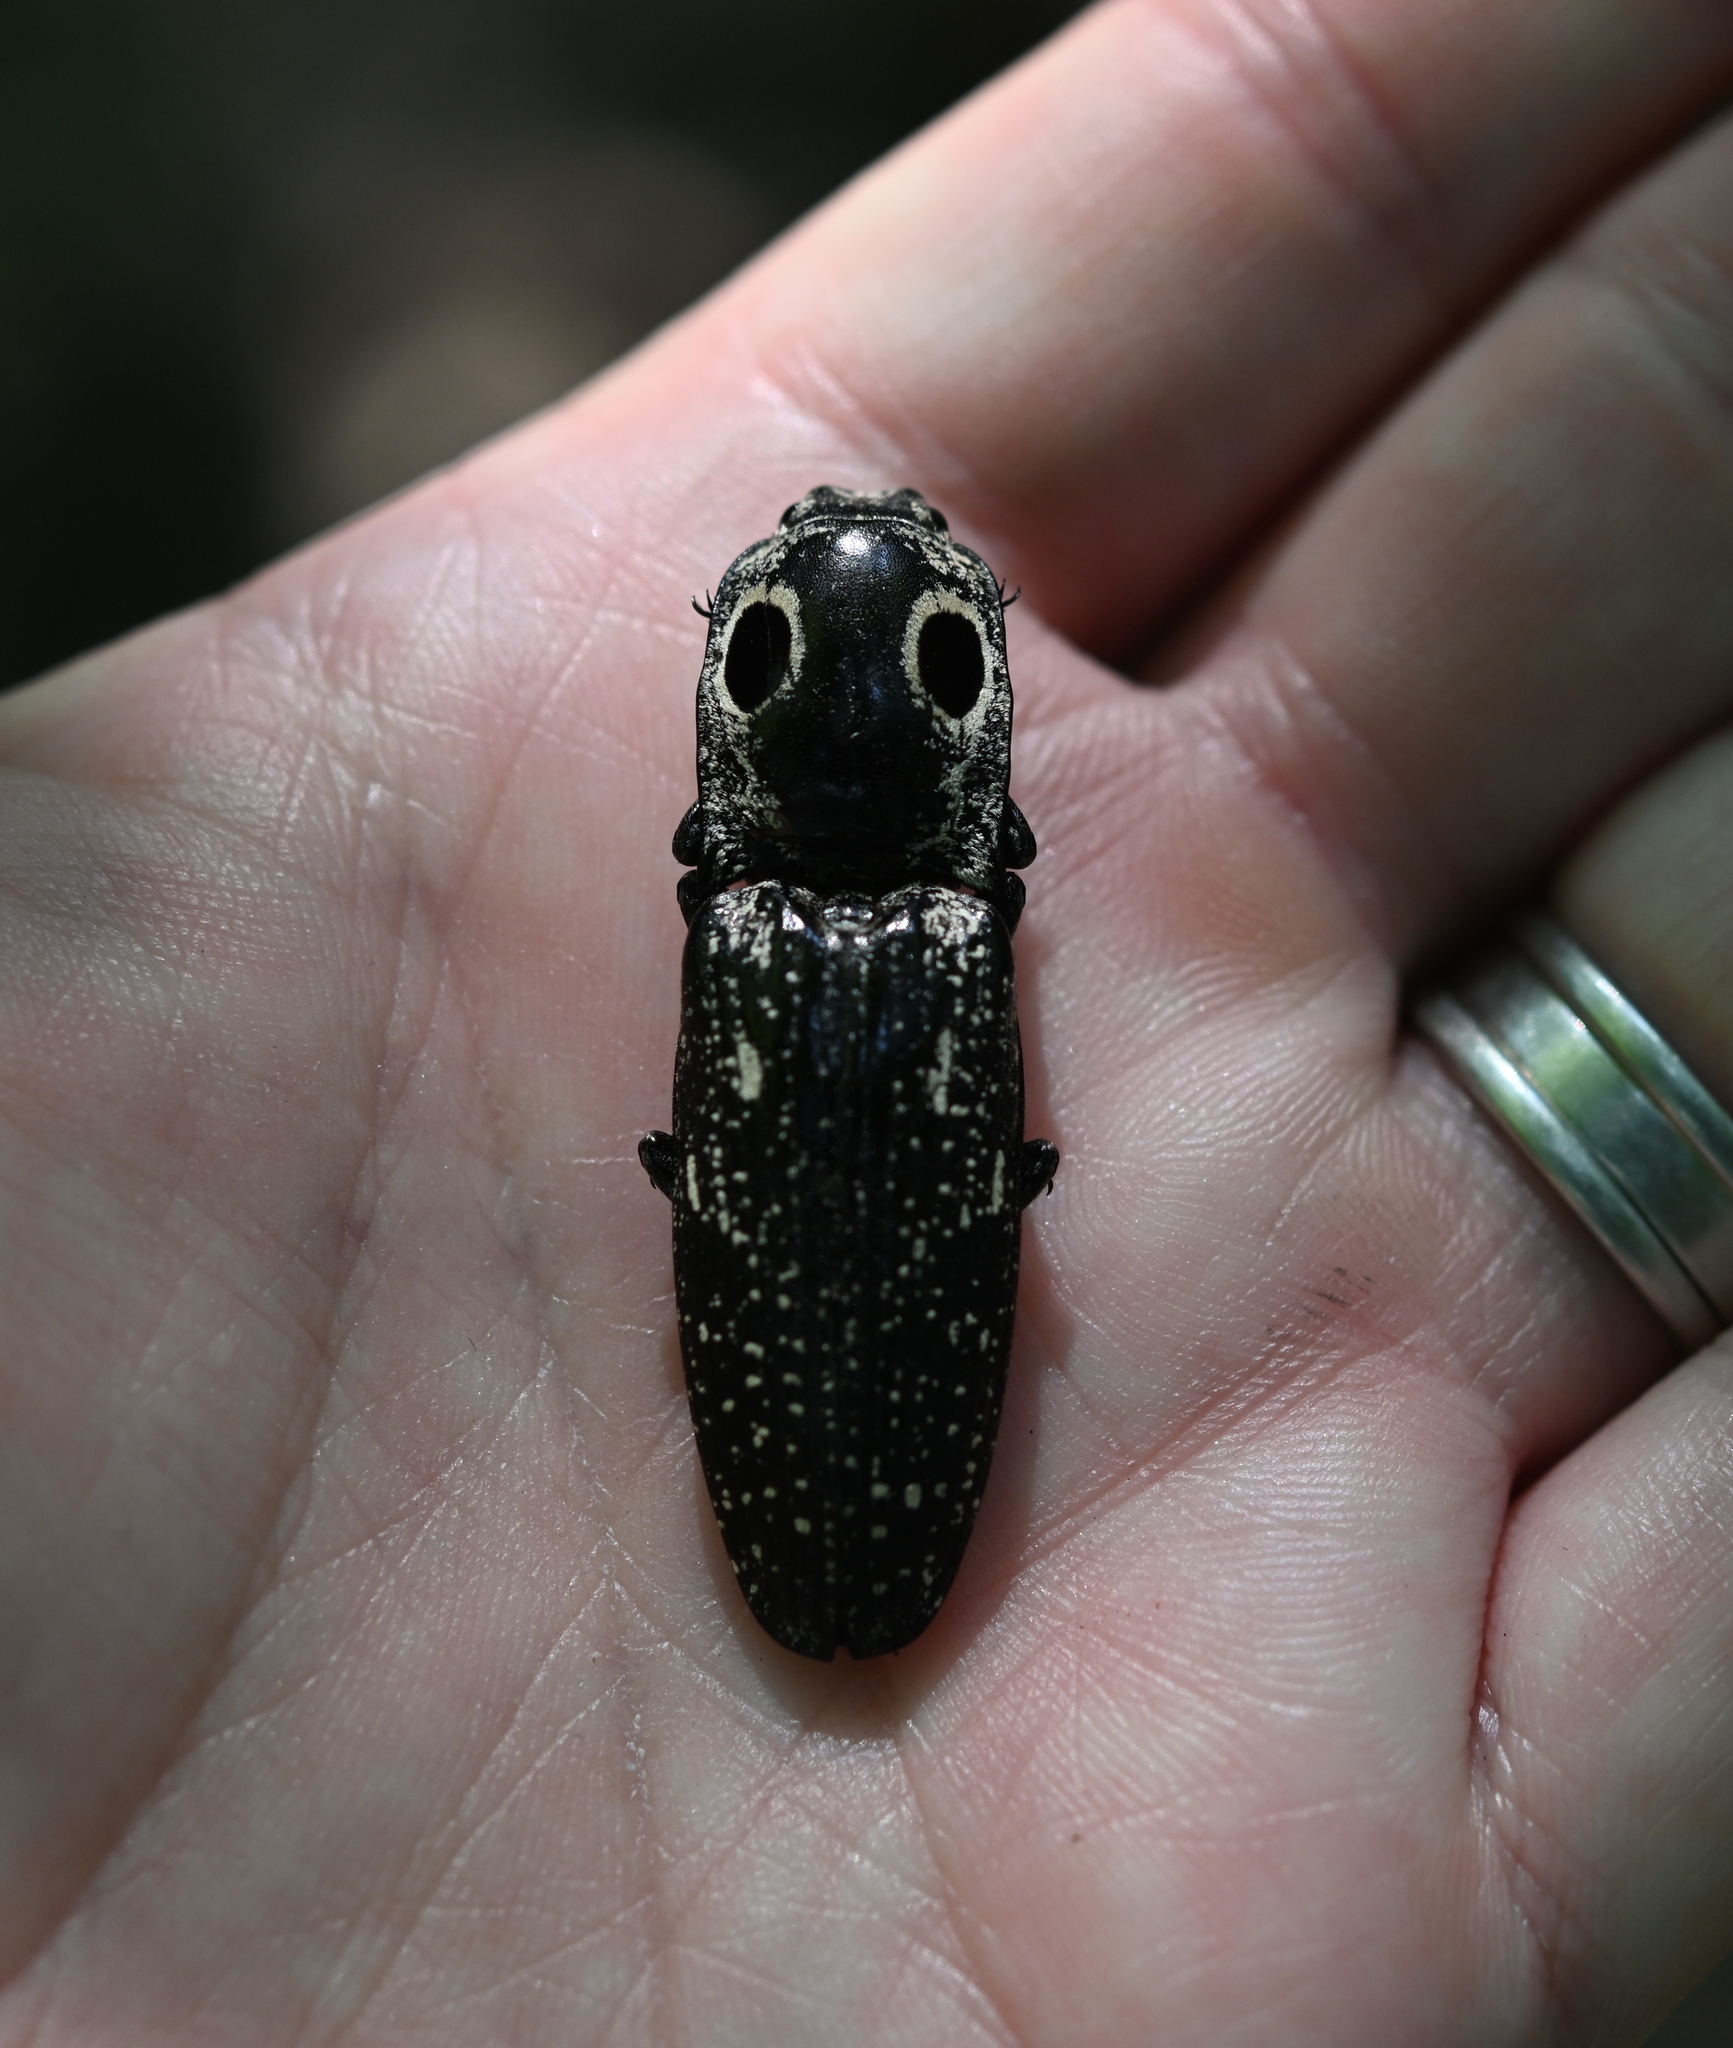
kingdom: Animalia
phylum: Arthropoda
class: Insecta
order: Coleoptera
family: Elateridae
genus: Alaus
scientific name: Alaus oculatus
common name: Eastern eyed click beetle
